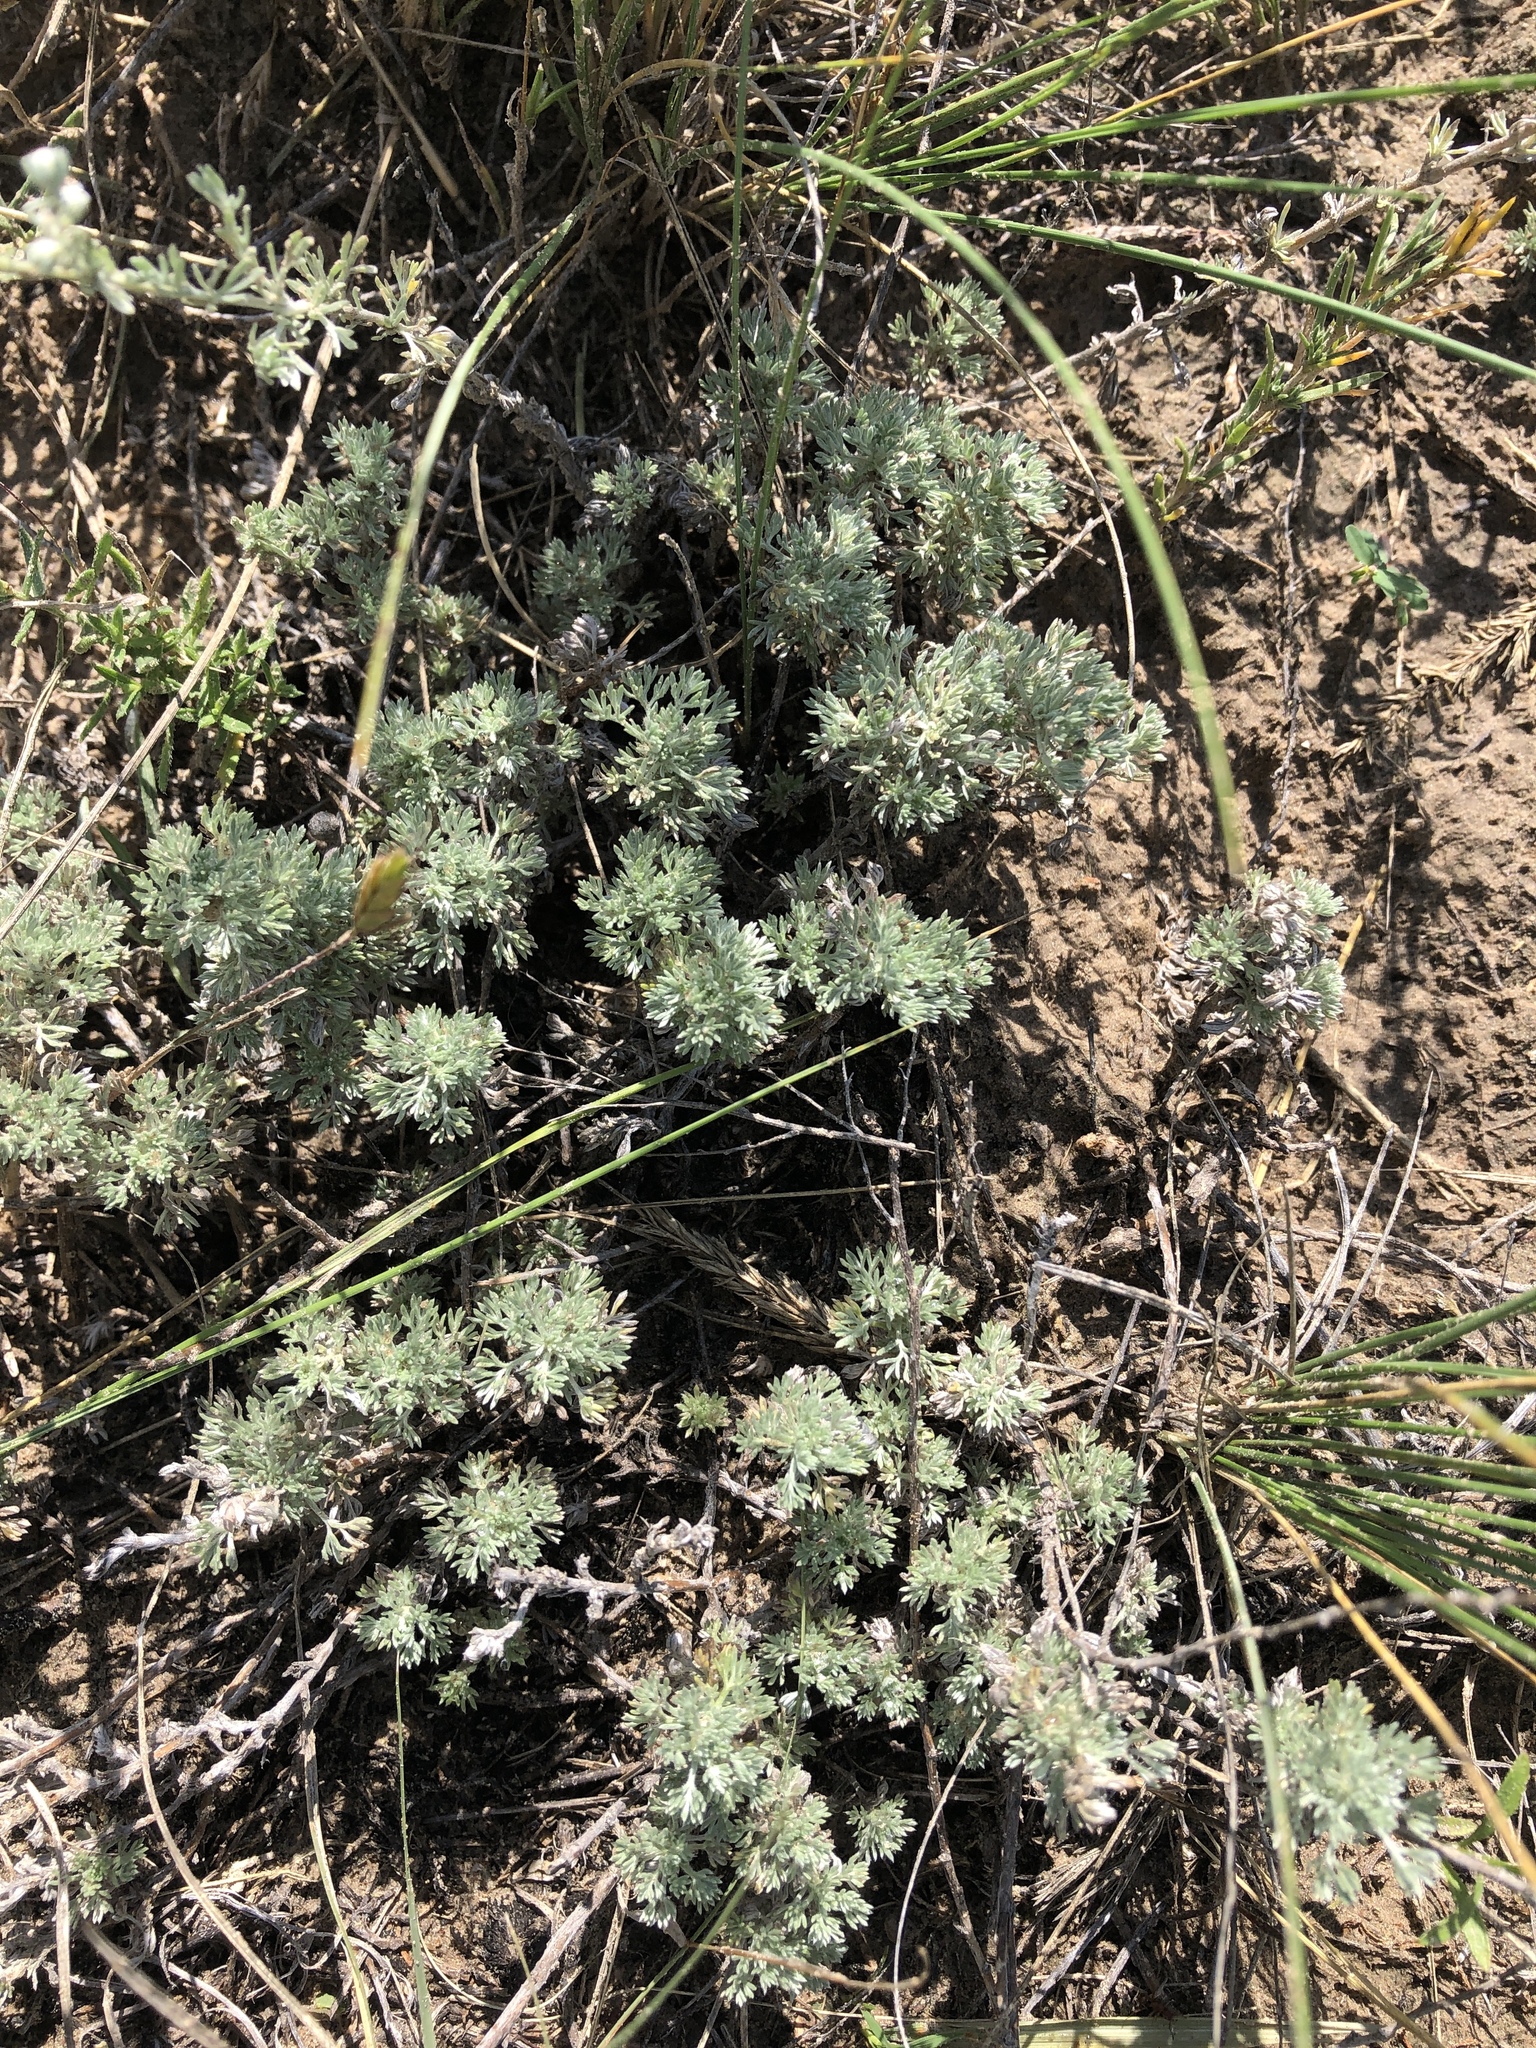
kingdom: Plantae
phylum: Tracheophyta
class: Magnoliopsida
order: Asterales
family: Asteraceae
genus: Artemisia
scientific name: Artemisia frigida
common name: Prairie sagewort
